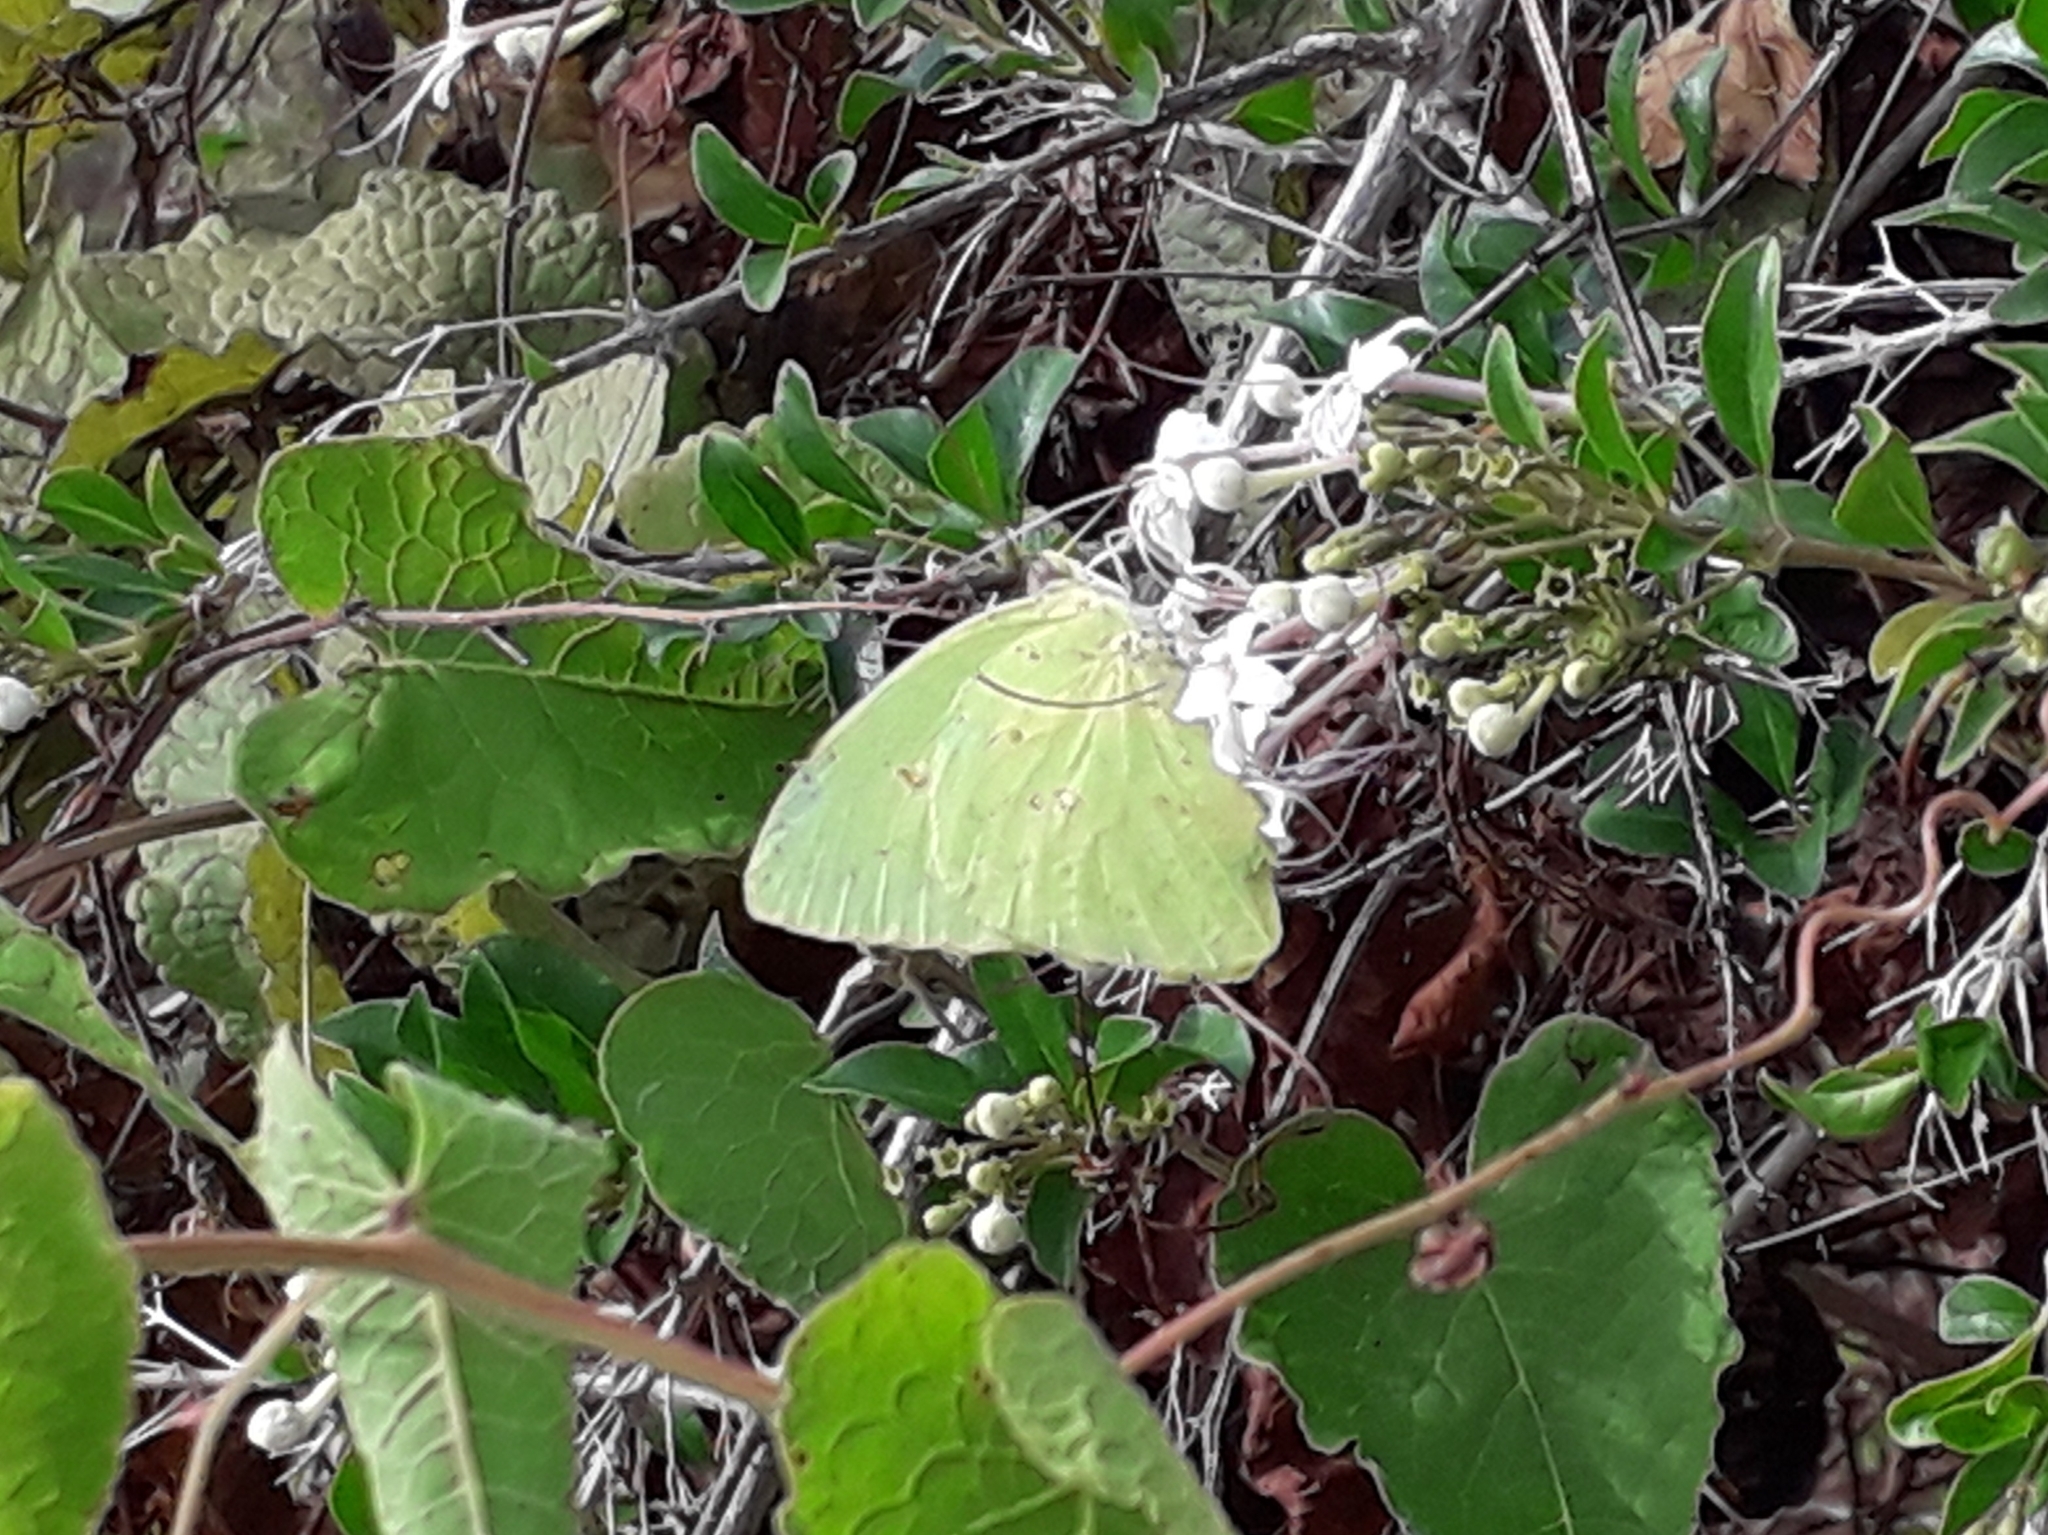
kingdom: Animalia
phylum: Arthropoda
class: Insecta
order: Lepidoptera
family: Pieridae
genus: Phoebis
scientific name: Phoebis sennae
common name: Cloudless sulphur
